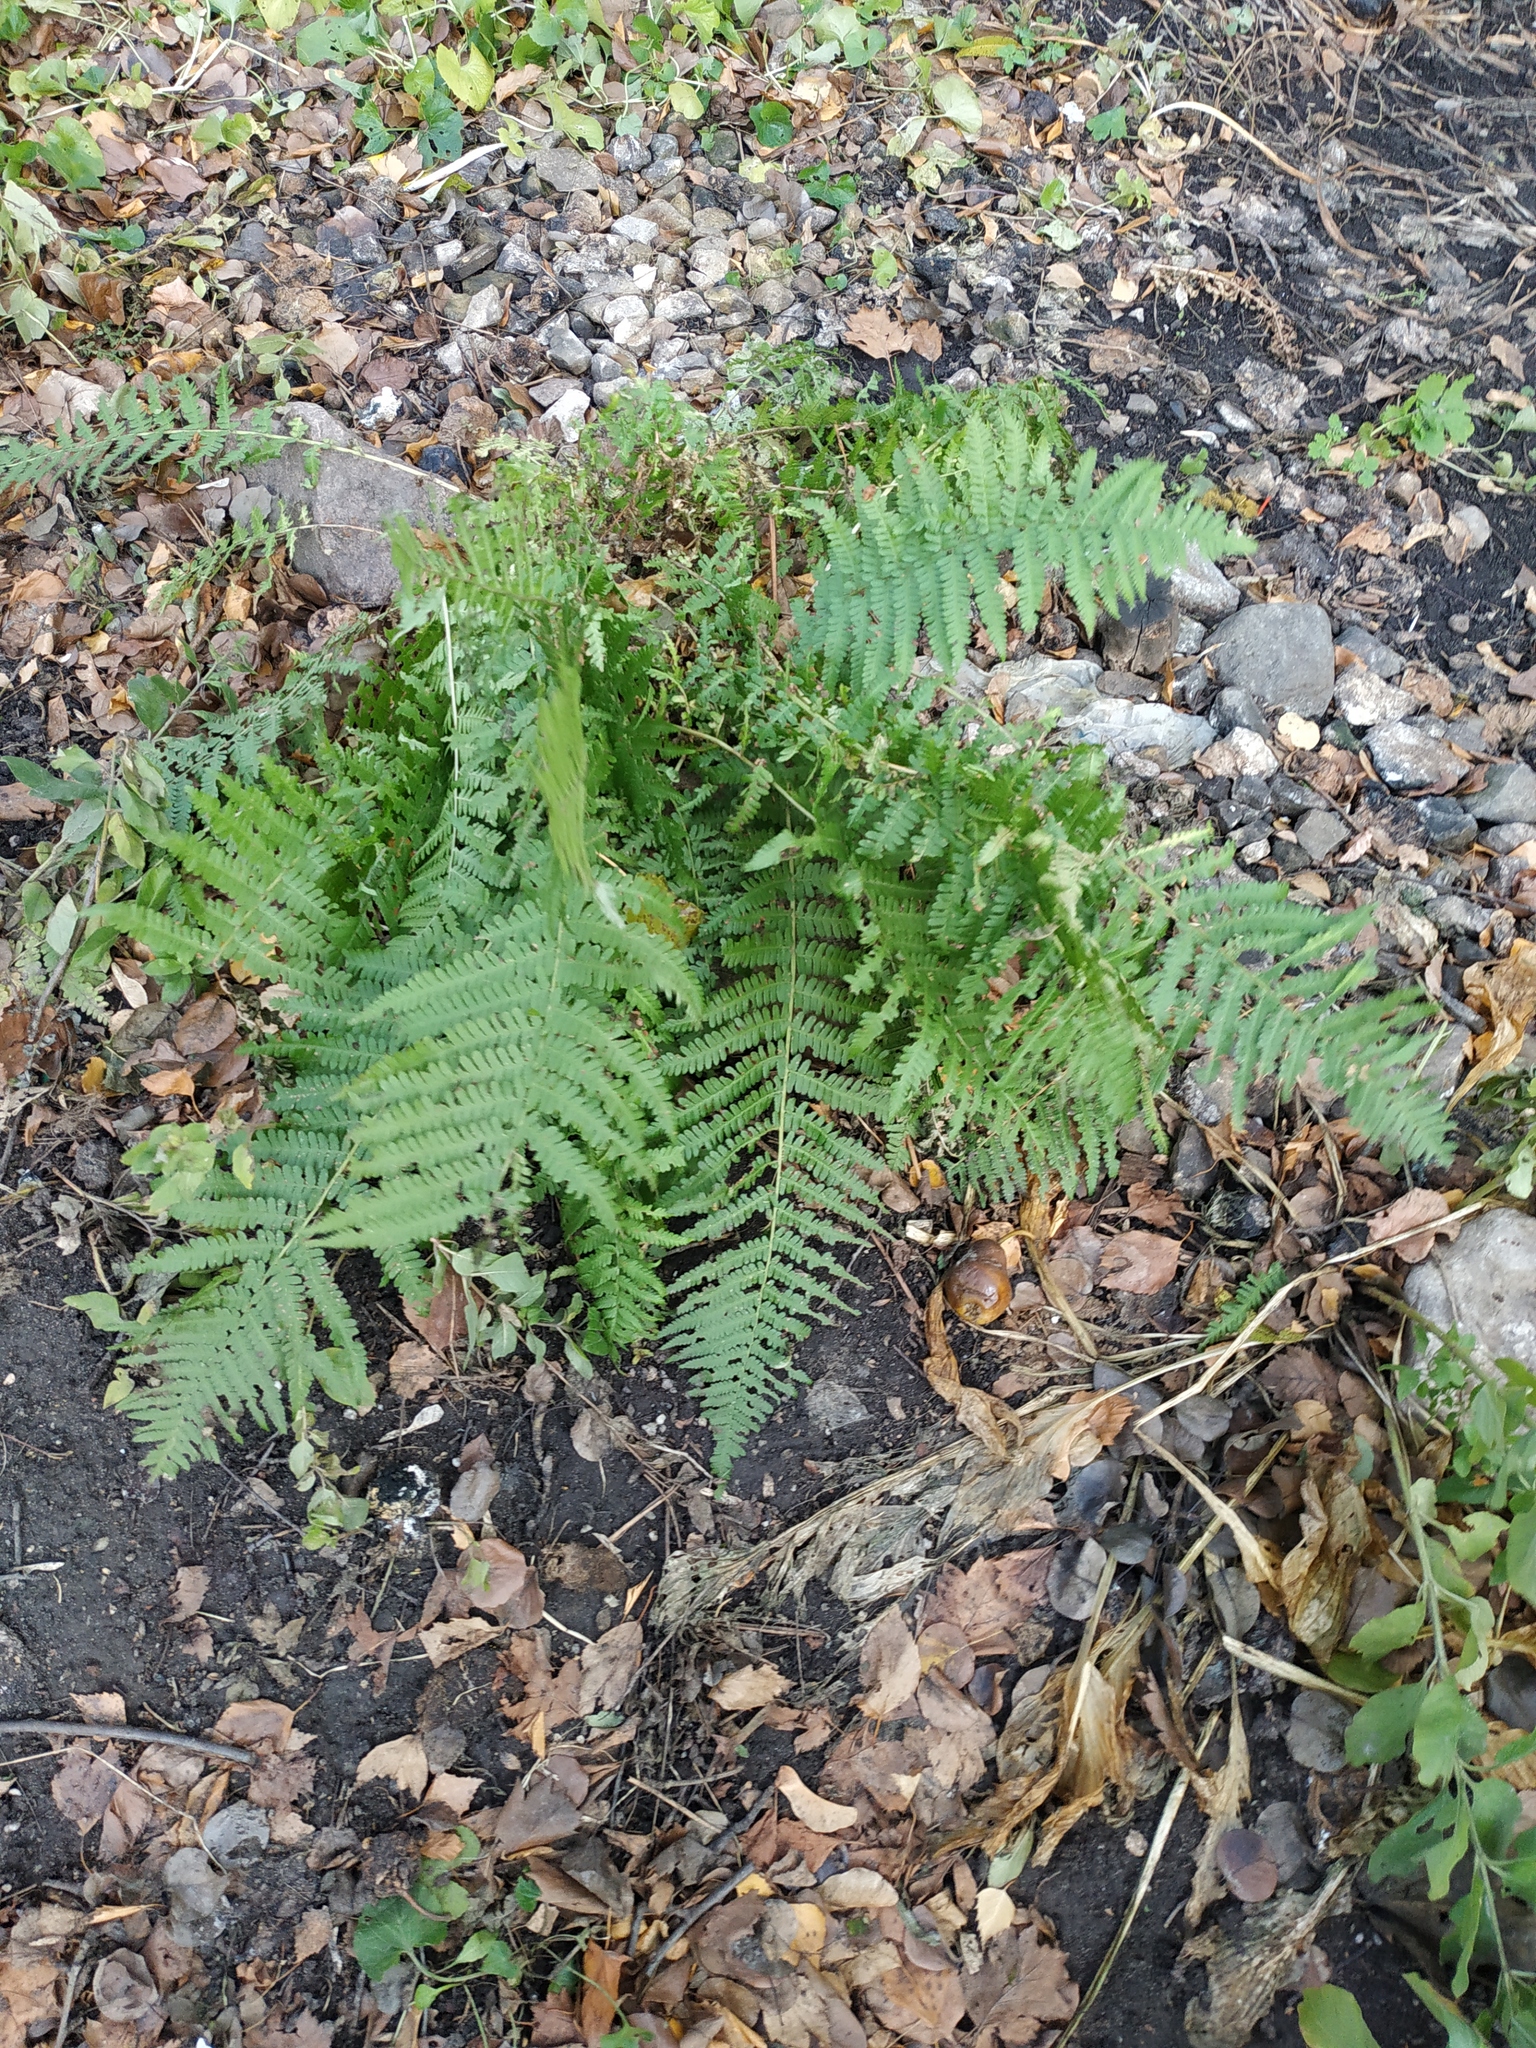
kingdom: Plantae
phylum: Tracheophyta
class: Polypodiopsida
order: Polypodiales
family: Dryopteridaceae
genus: Dryopteris
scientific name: Dryopteris filix-mas
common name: Male fern
